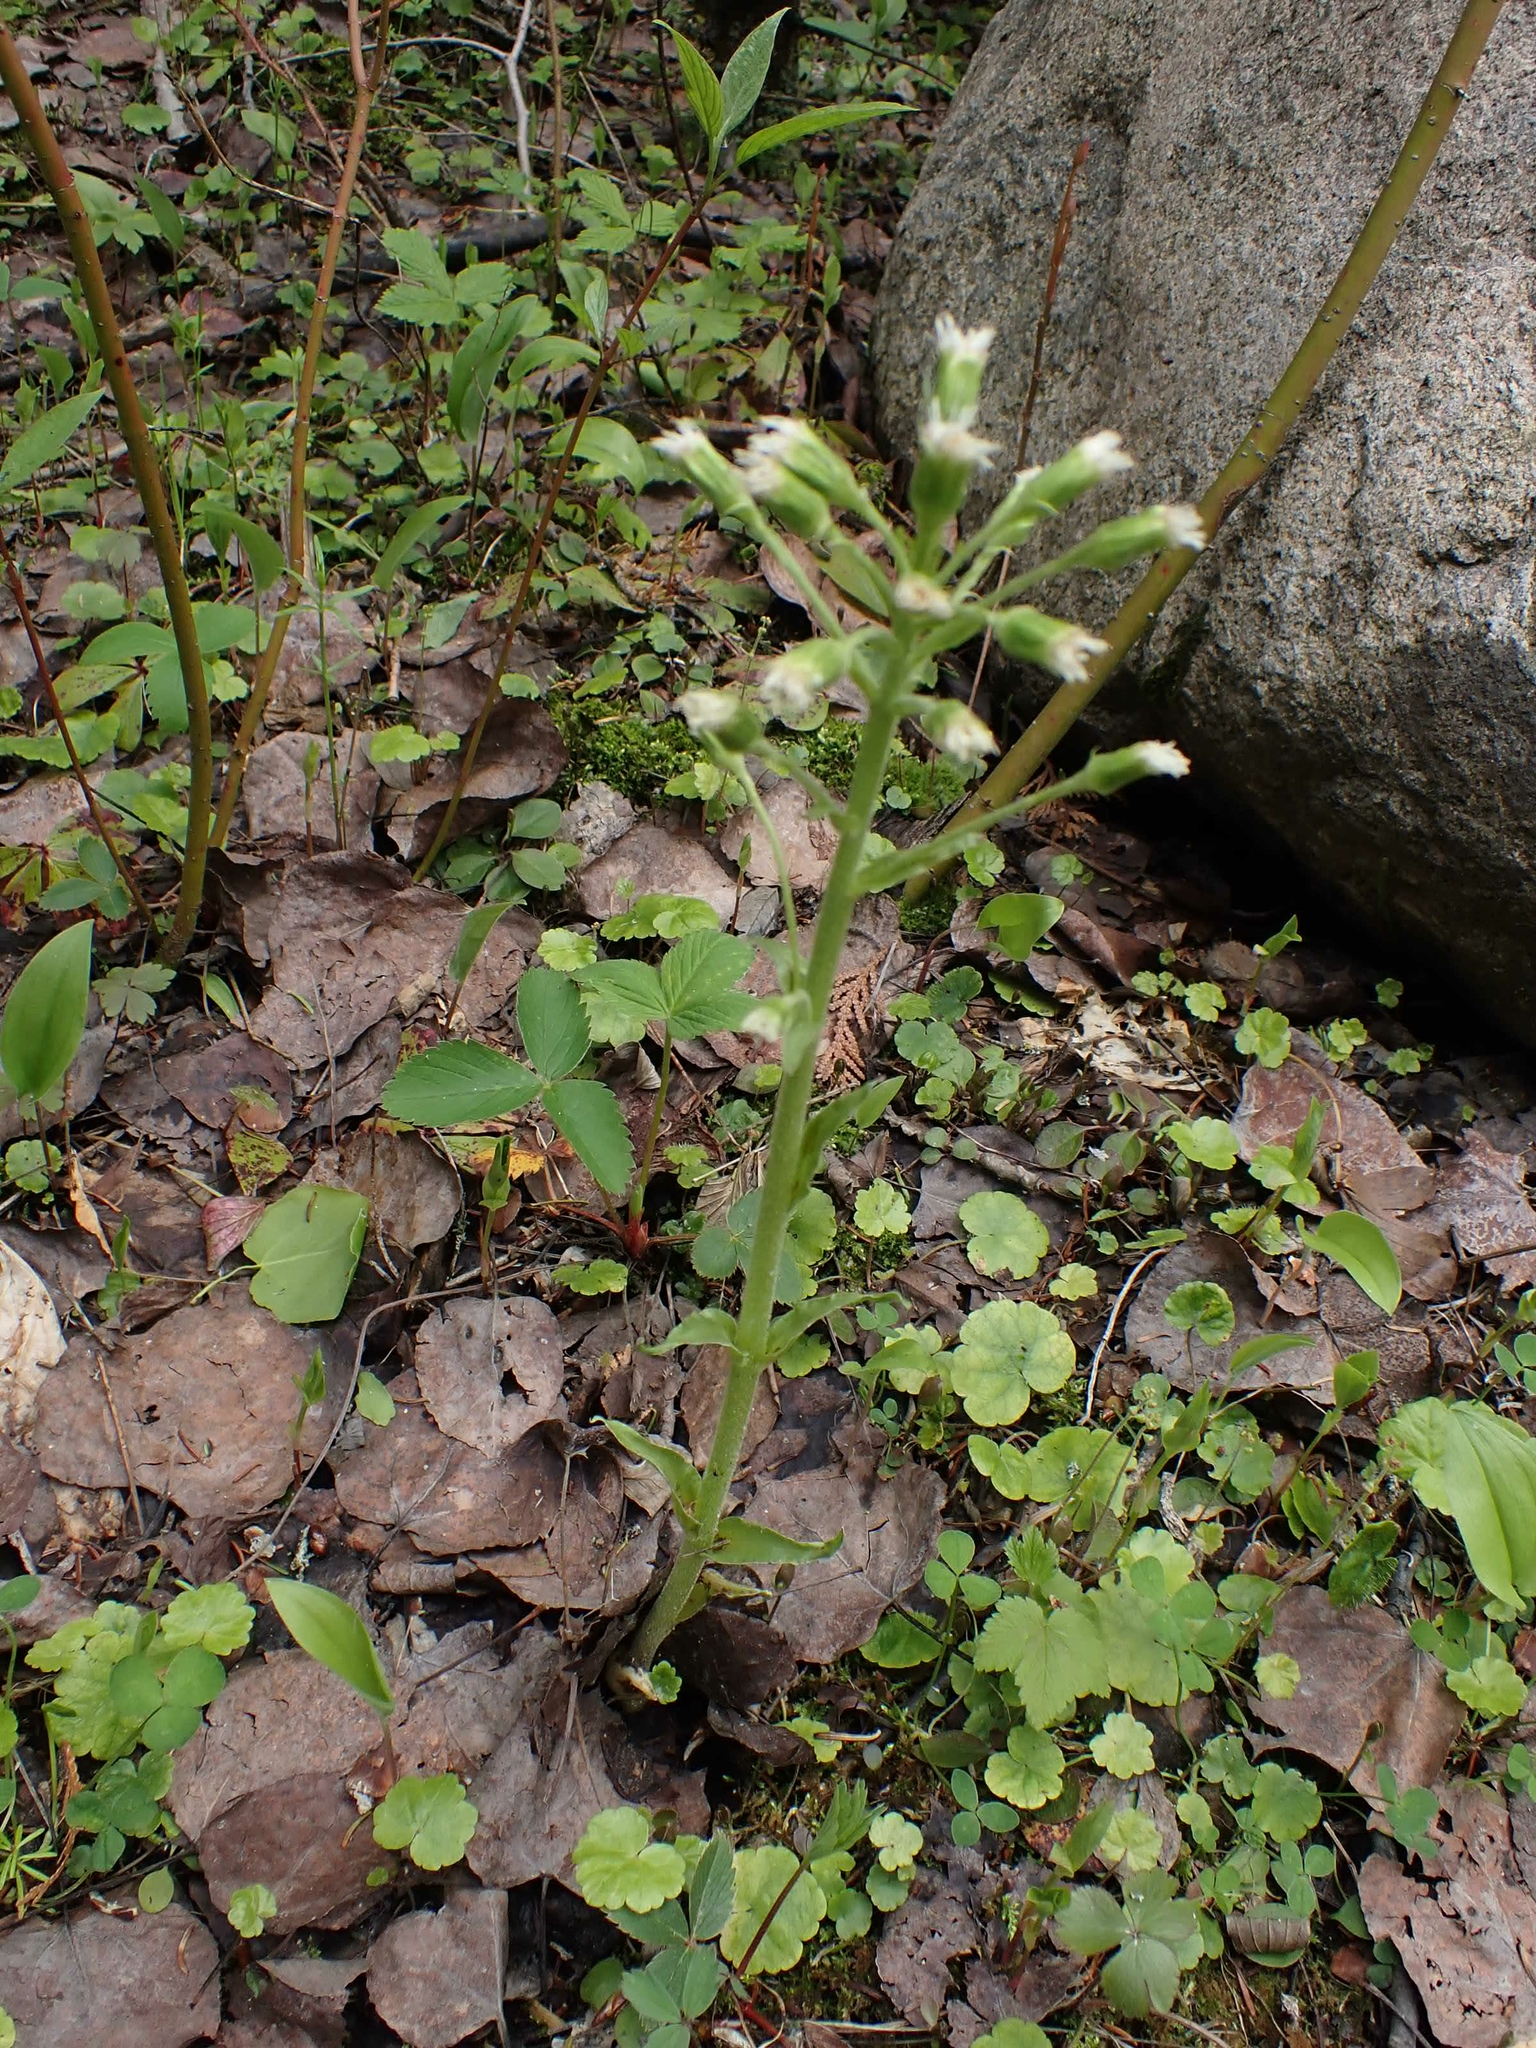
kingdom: Plantae
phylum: Tracheophyta
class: Magnoliopsida
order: Asterales
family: Asteraceae
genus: Petasites
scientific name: Petasites frigidus
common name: Arctic butterbur
